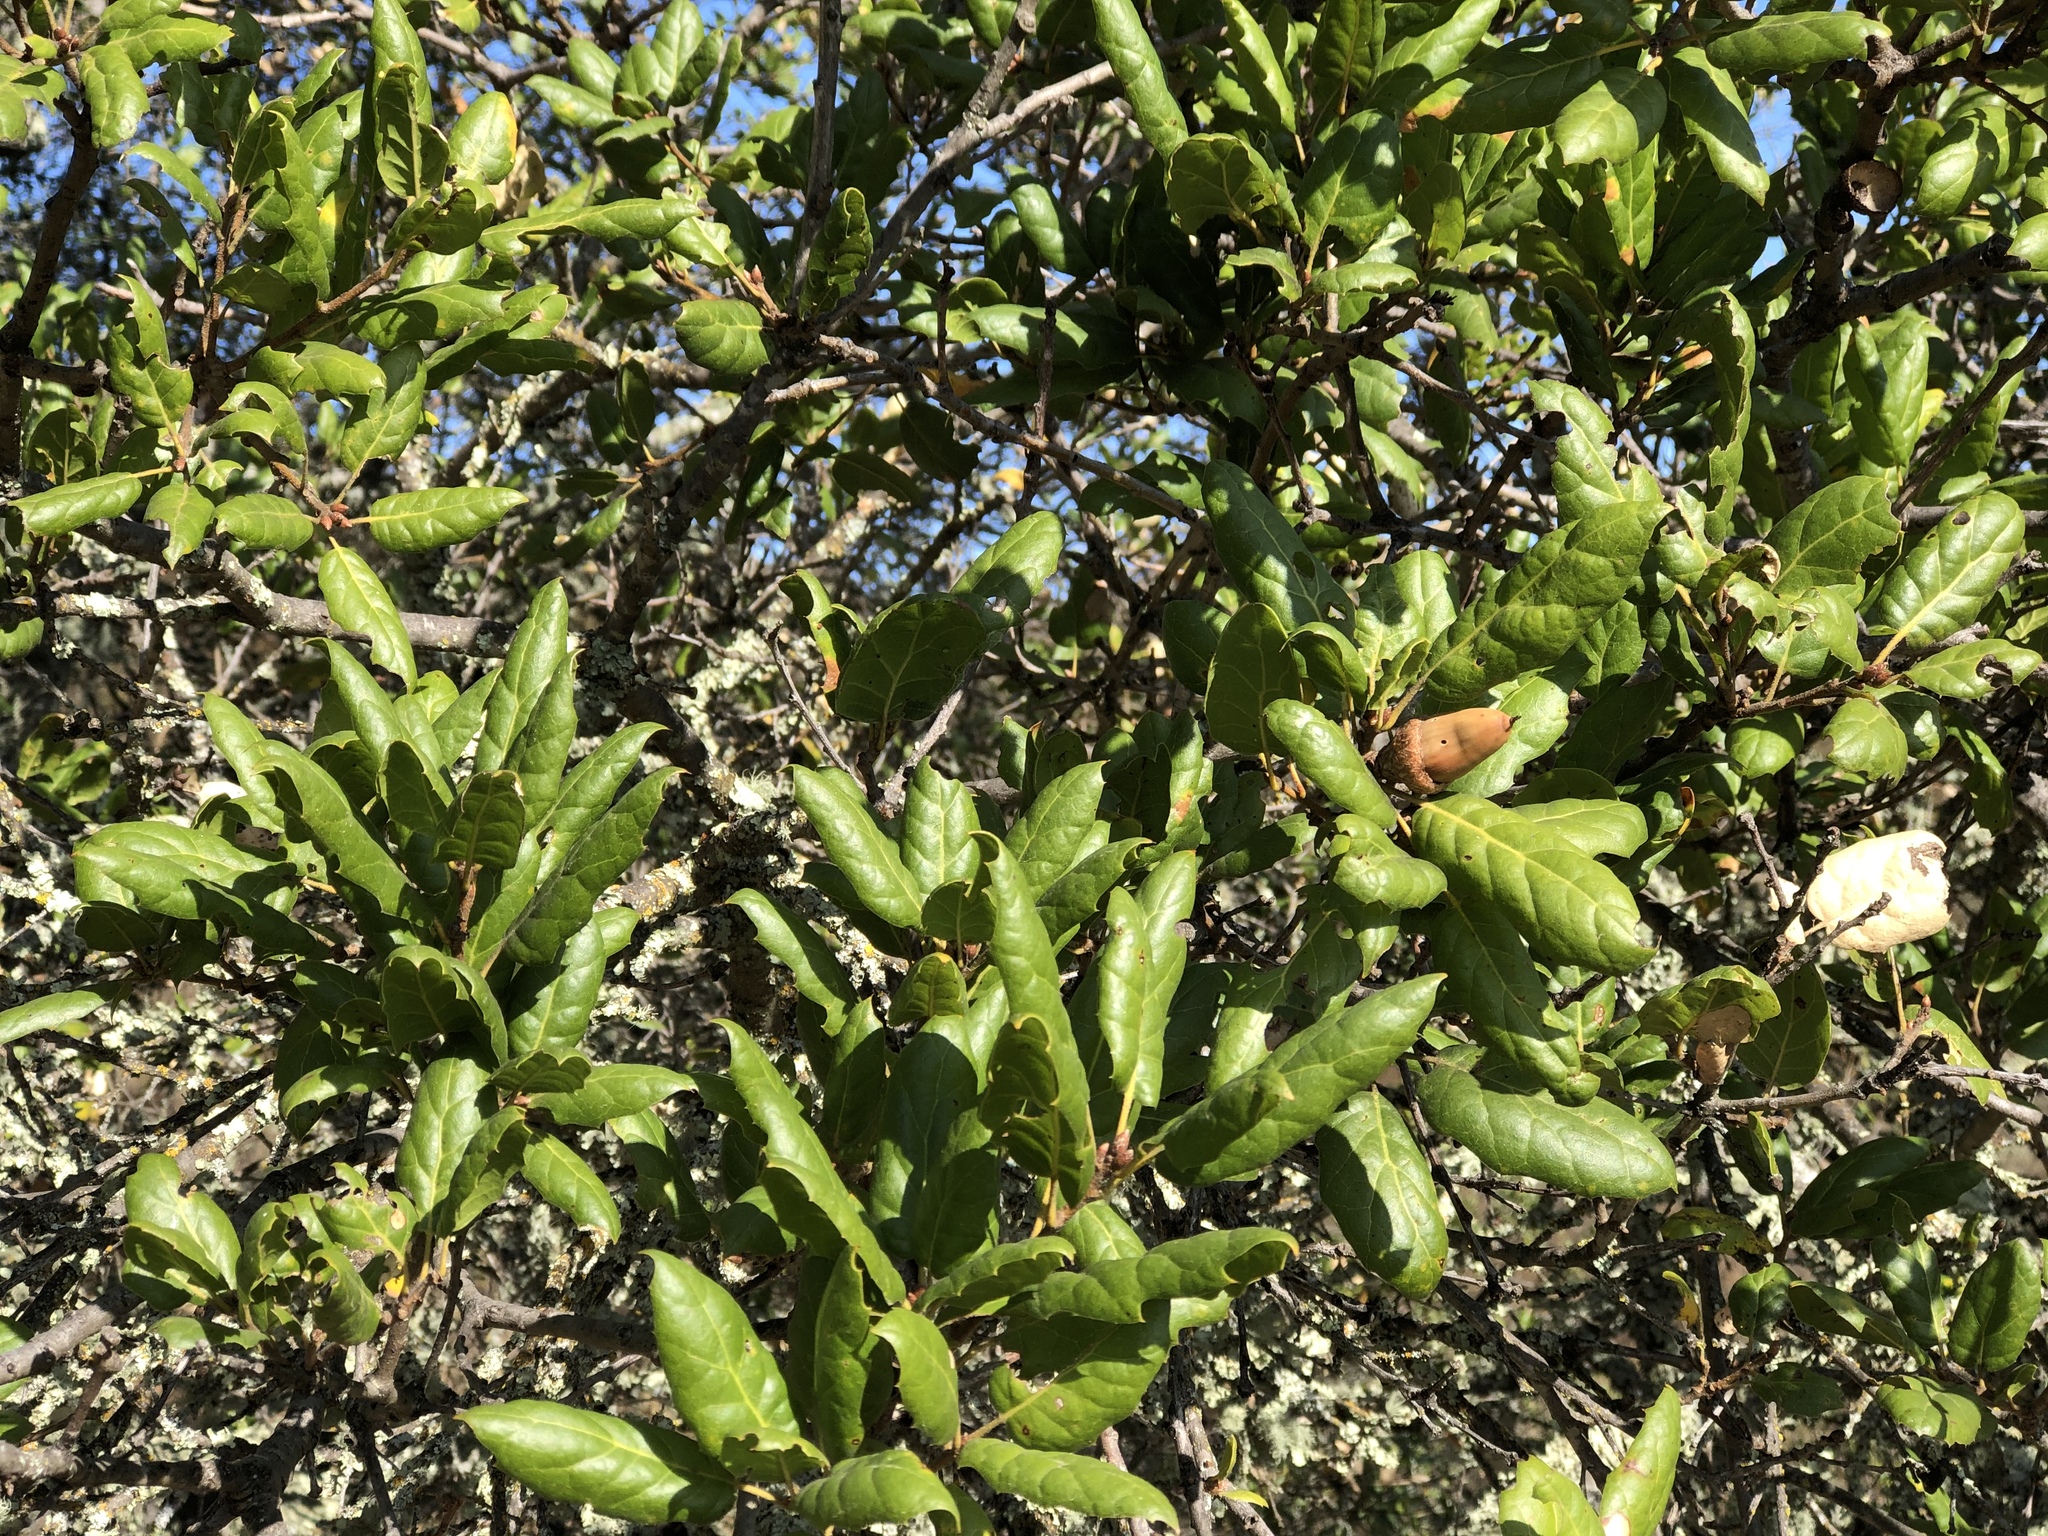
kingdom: Plantae
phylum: Tracheophyta
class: Magnoliopsida
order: Fagales
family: Fagaceae
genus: Quercus
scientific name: Quercus agrifolia
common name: California live oak
